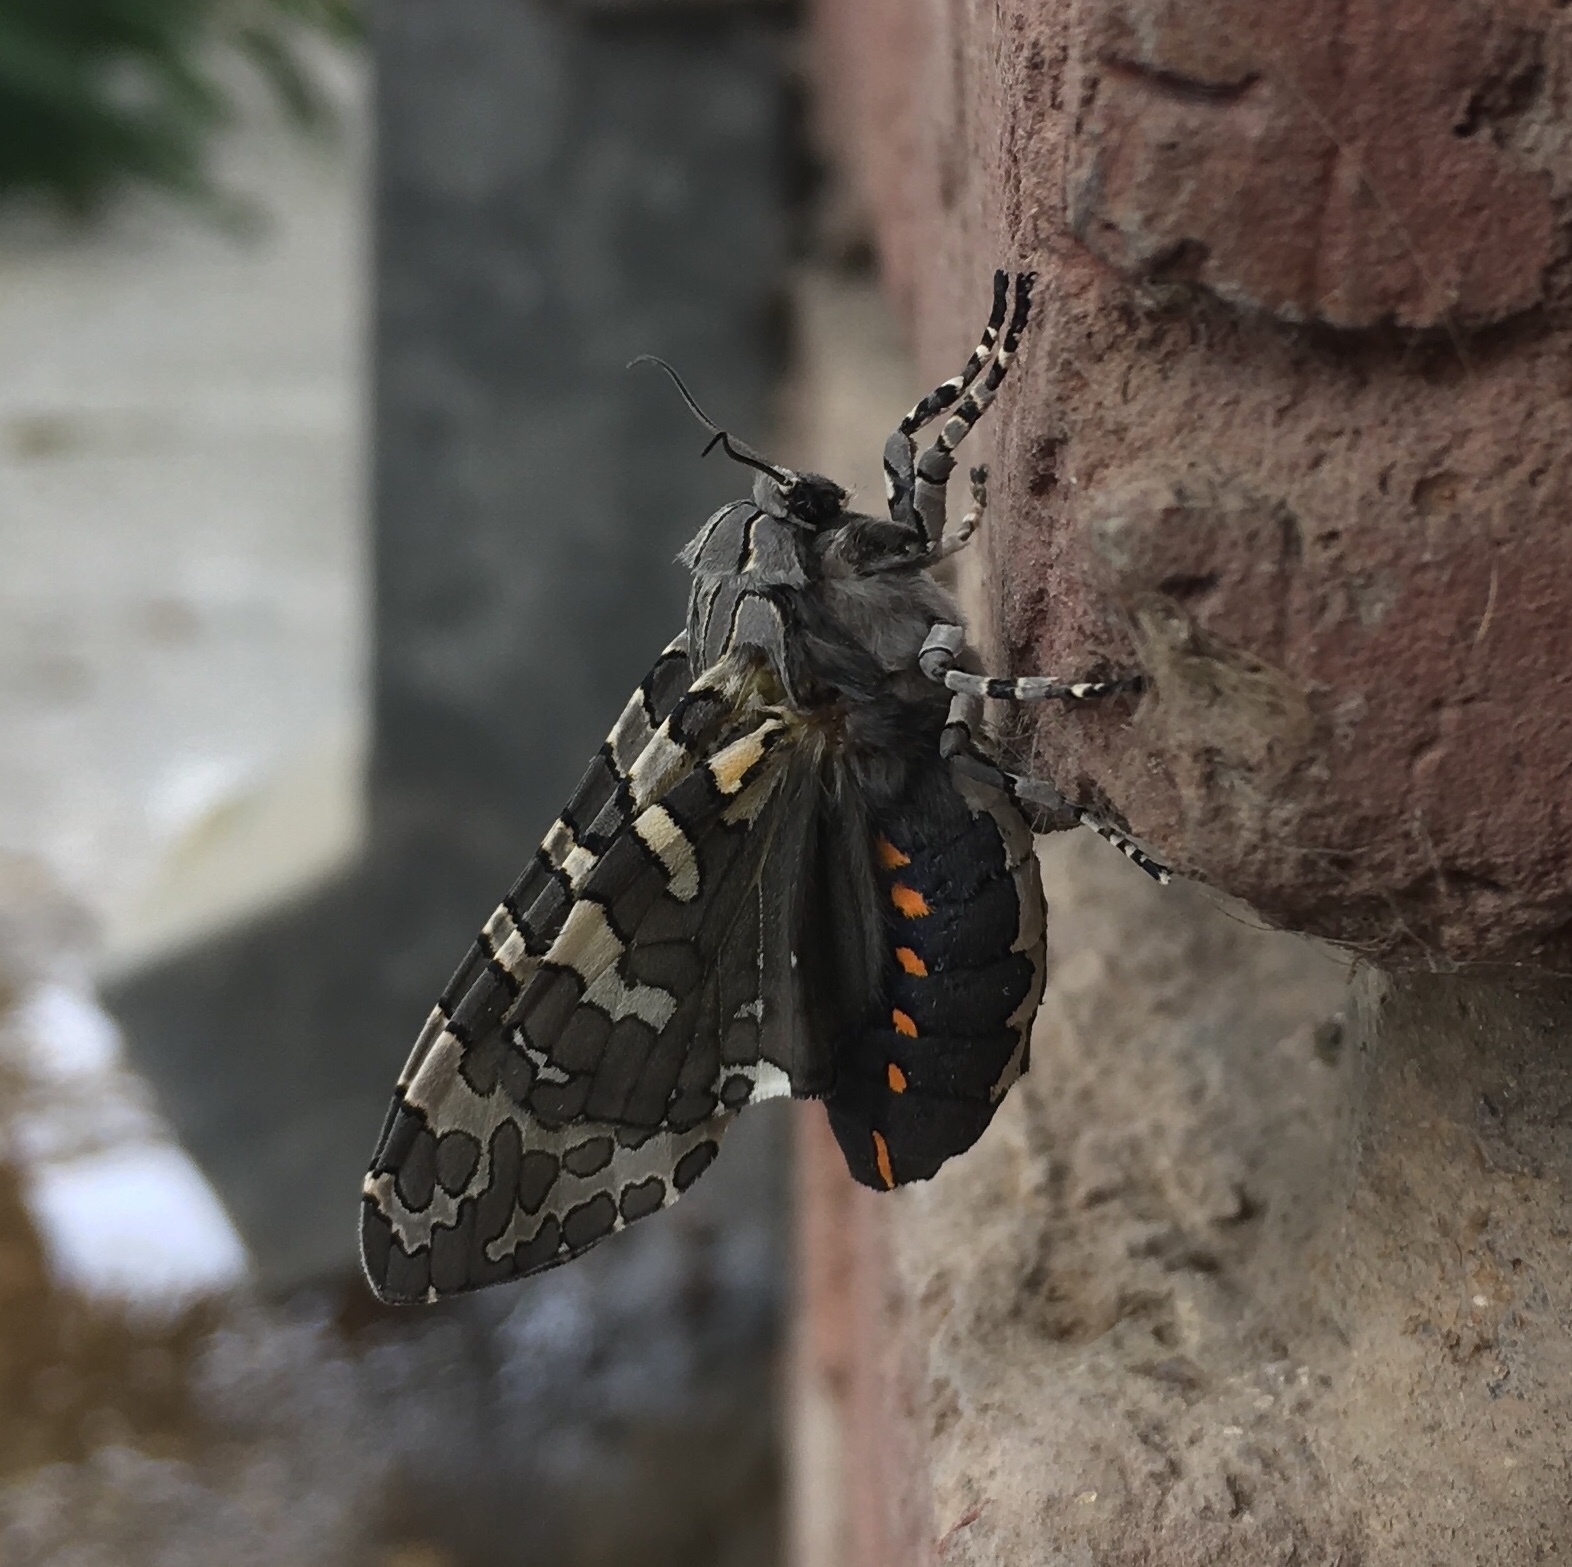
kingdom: Animalia
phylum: Arthropoda
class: Insecta
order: Lepidoptera
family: Erebidae
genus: Hypercompe
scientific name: Hypercompe indecisa
